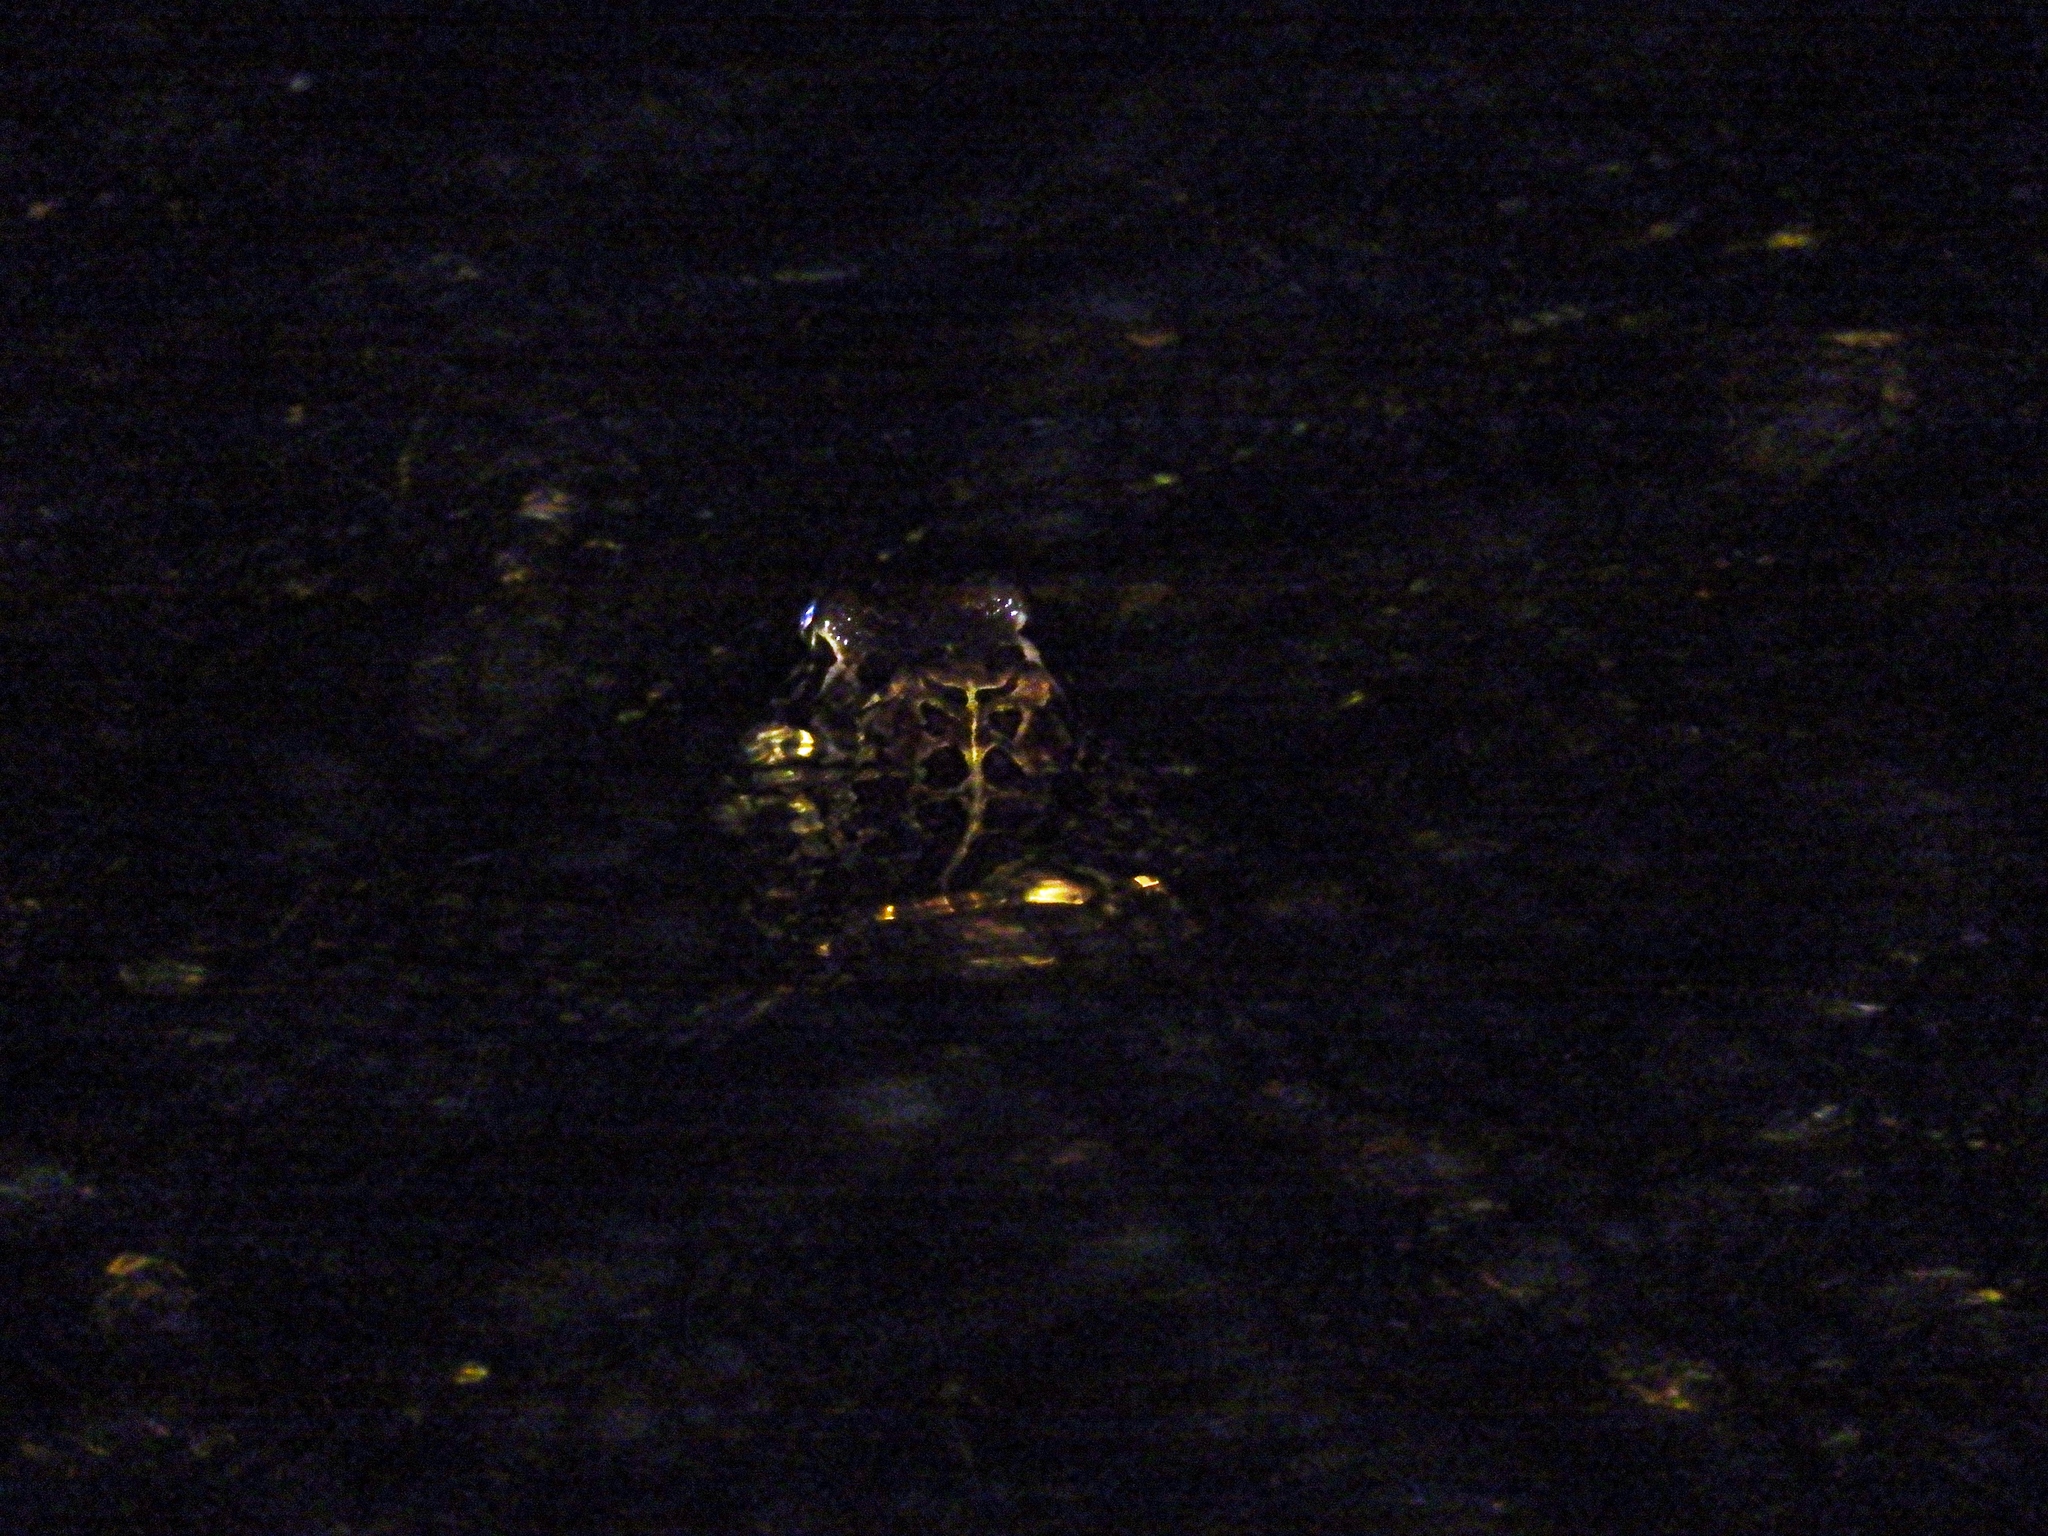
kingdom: Animalia
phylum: Chordata
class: Amphibia
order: Anura
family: Bufonidae
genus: Sclerophrys
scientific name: Sclerophrys pantherina
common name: Panther toad
